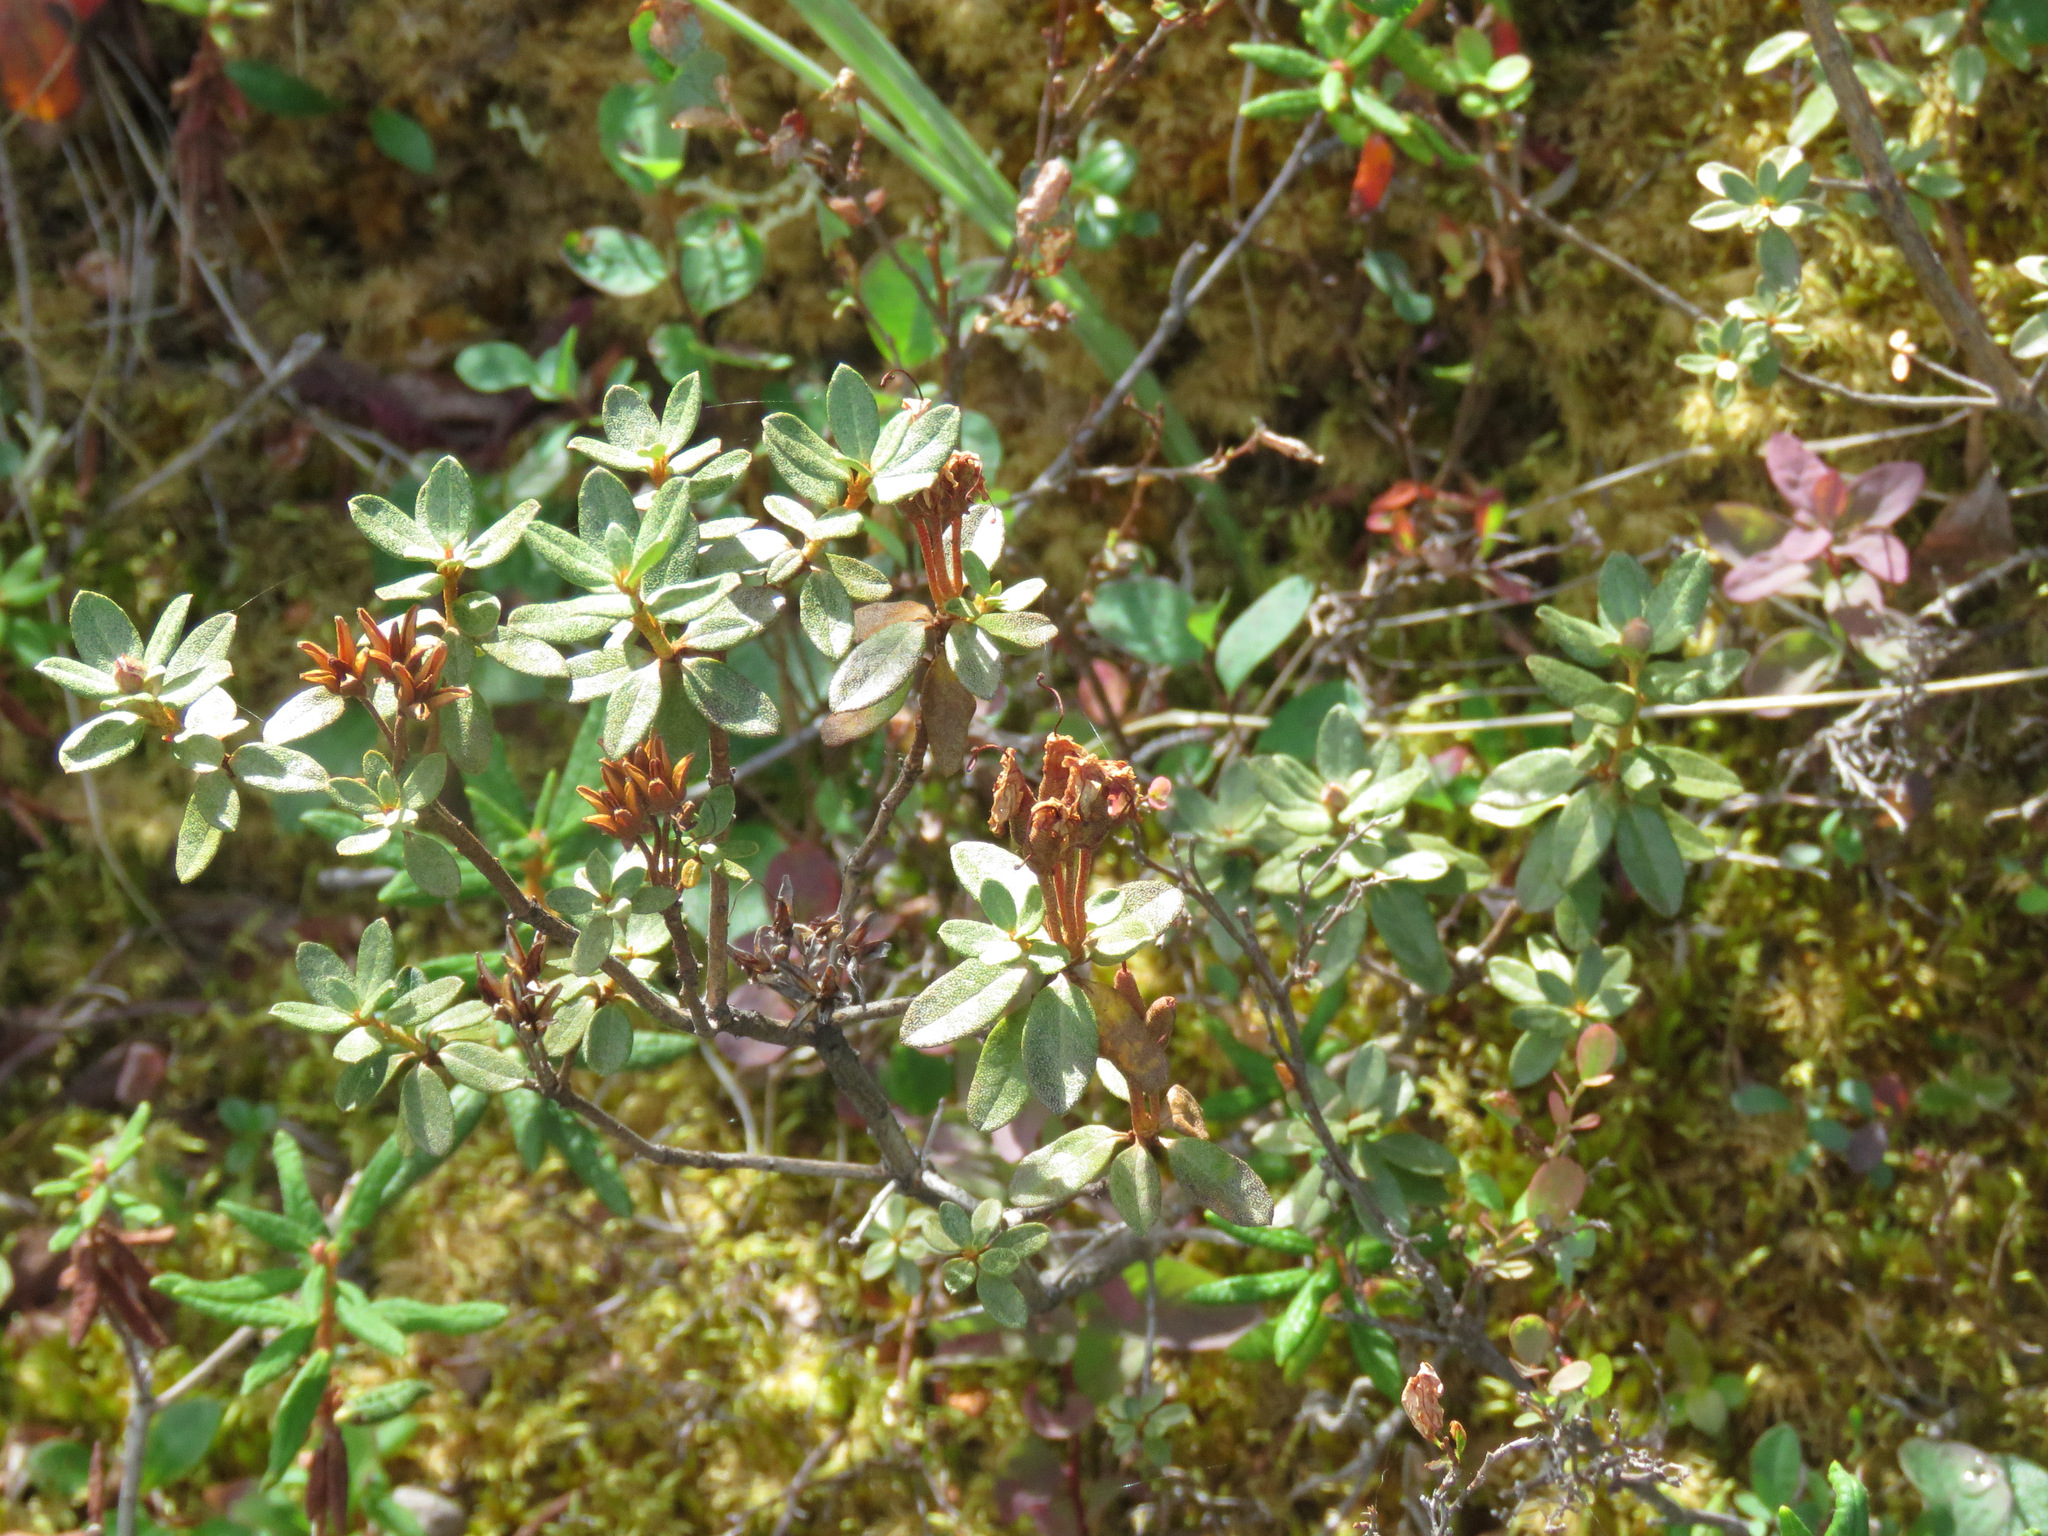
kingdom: Plantae
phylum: Tracheophyta
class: Magnoliopsida
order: Ericales
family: Ericaceae
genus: Rhododendron
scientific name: Rhododendron lapponicum
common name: Lapland rhododendron
